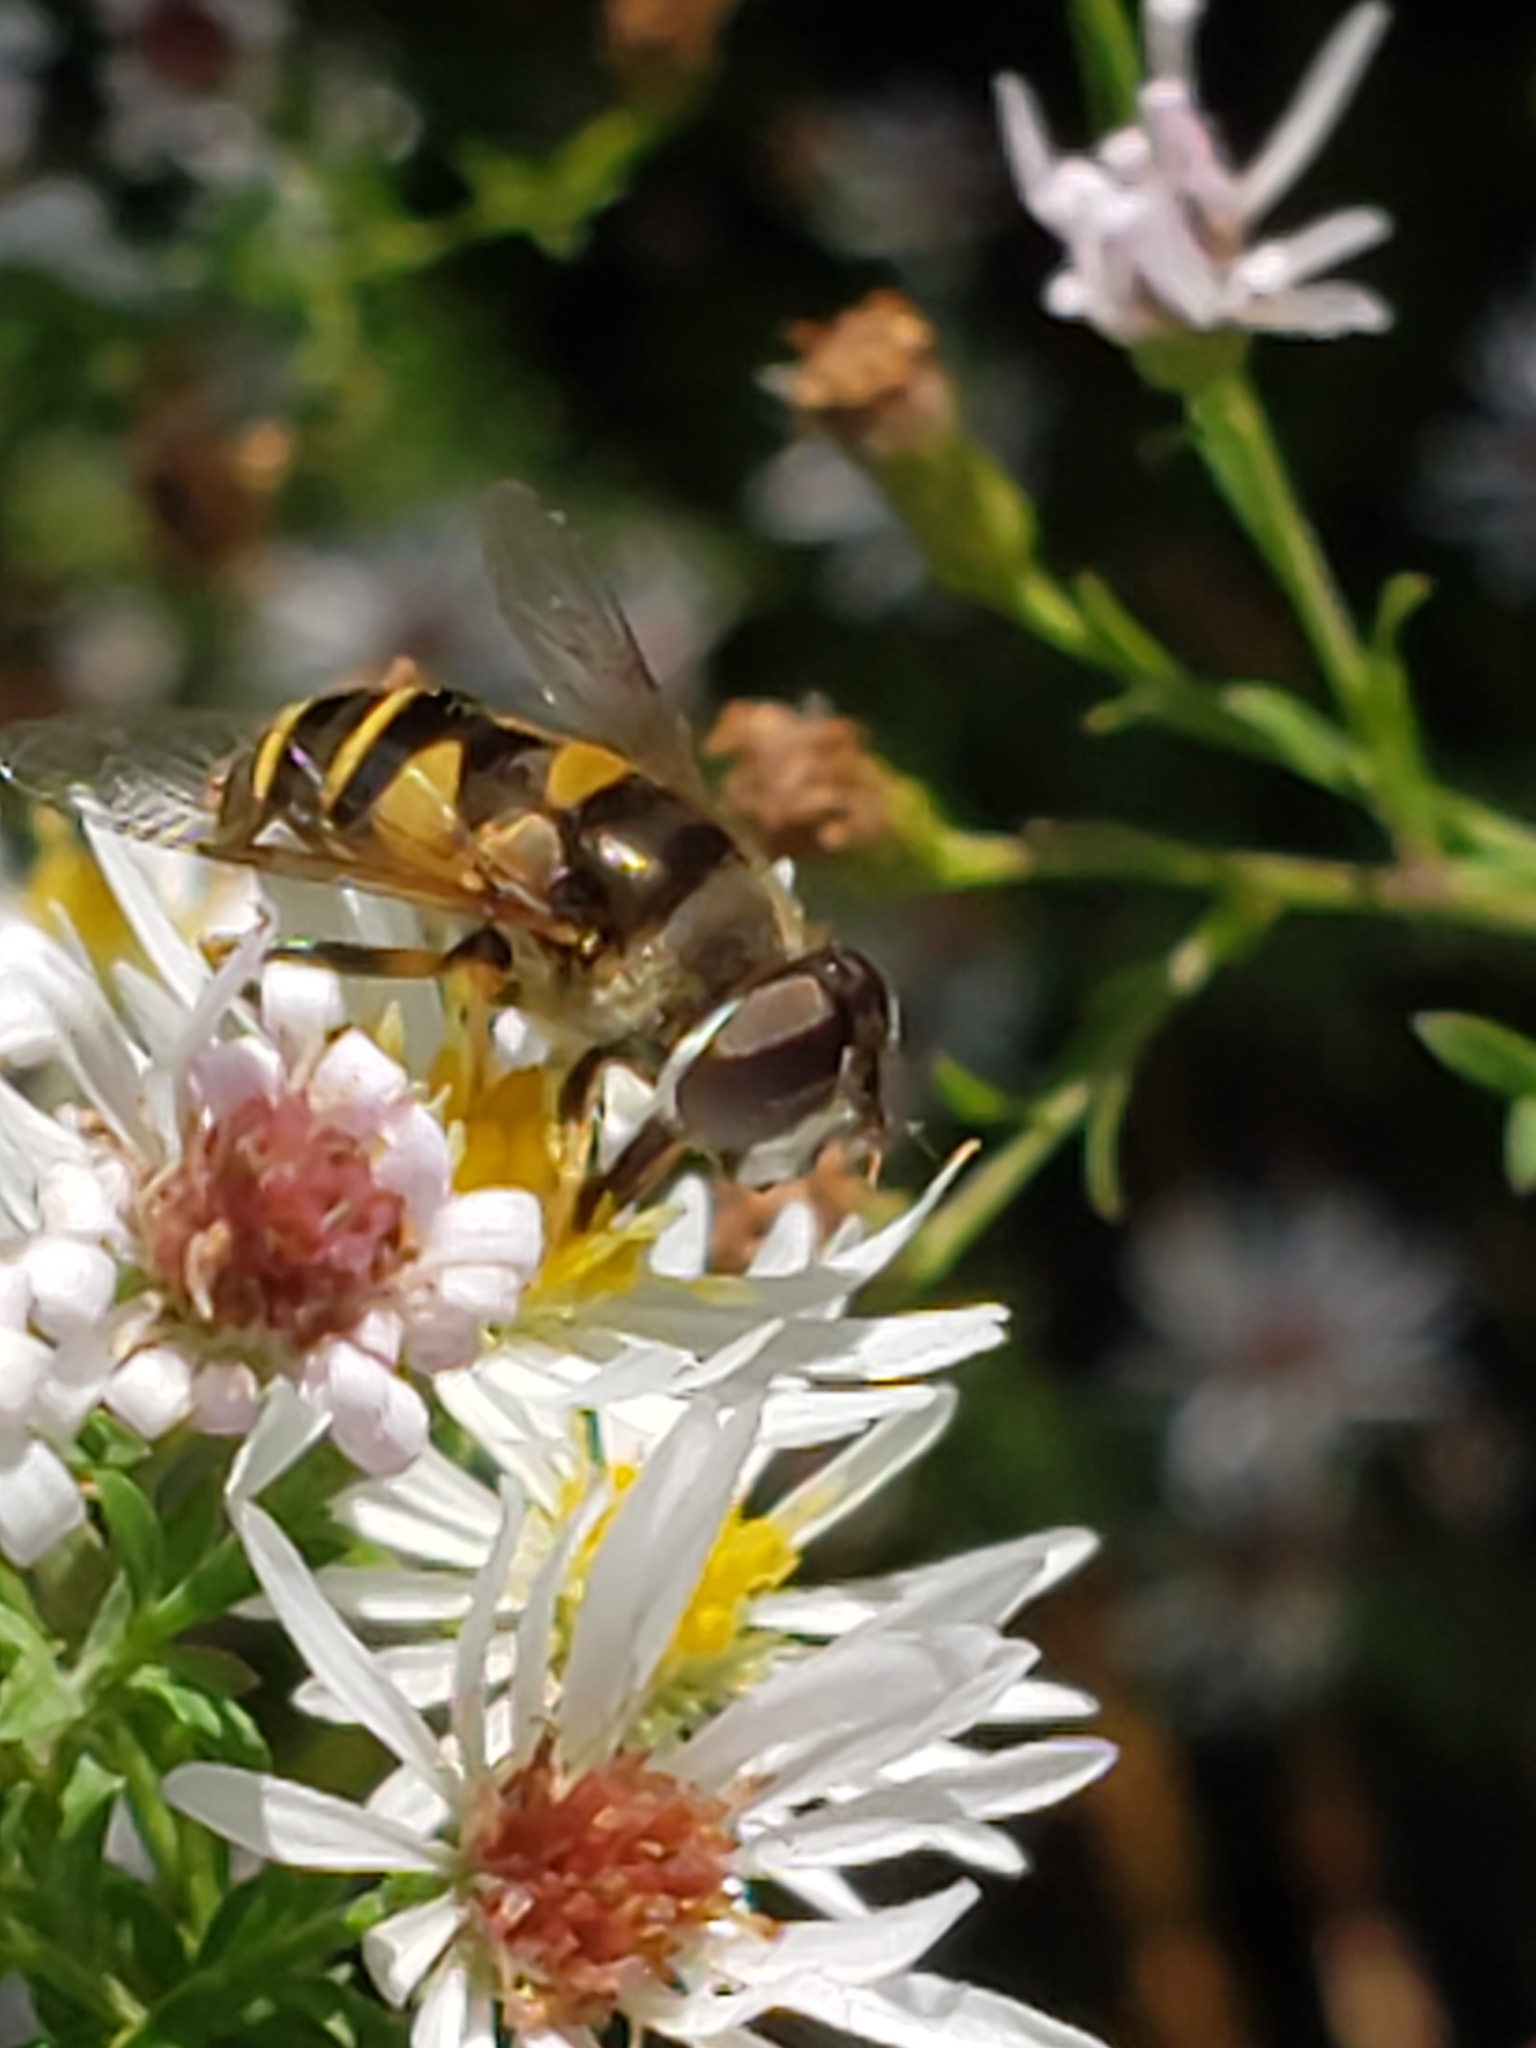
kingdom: Animalia
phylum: Arthropoda
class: Insecta
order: Diptera
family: Syrphidae
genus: Eristalis
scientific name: Eristalis transversa
